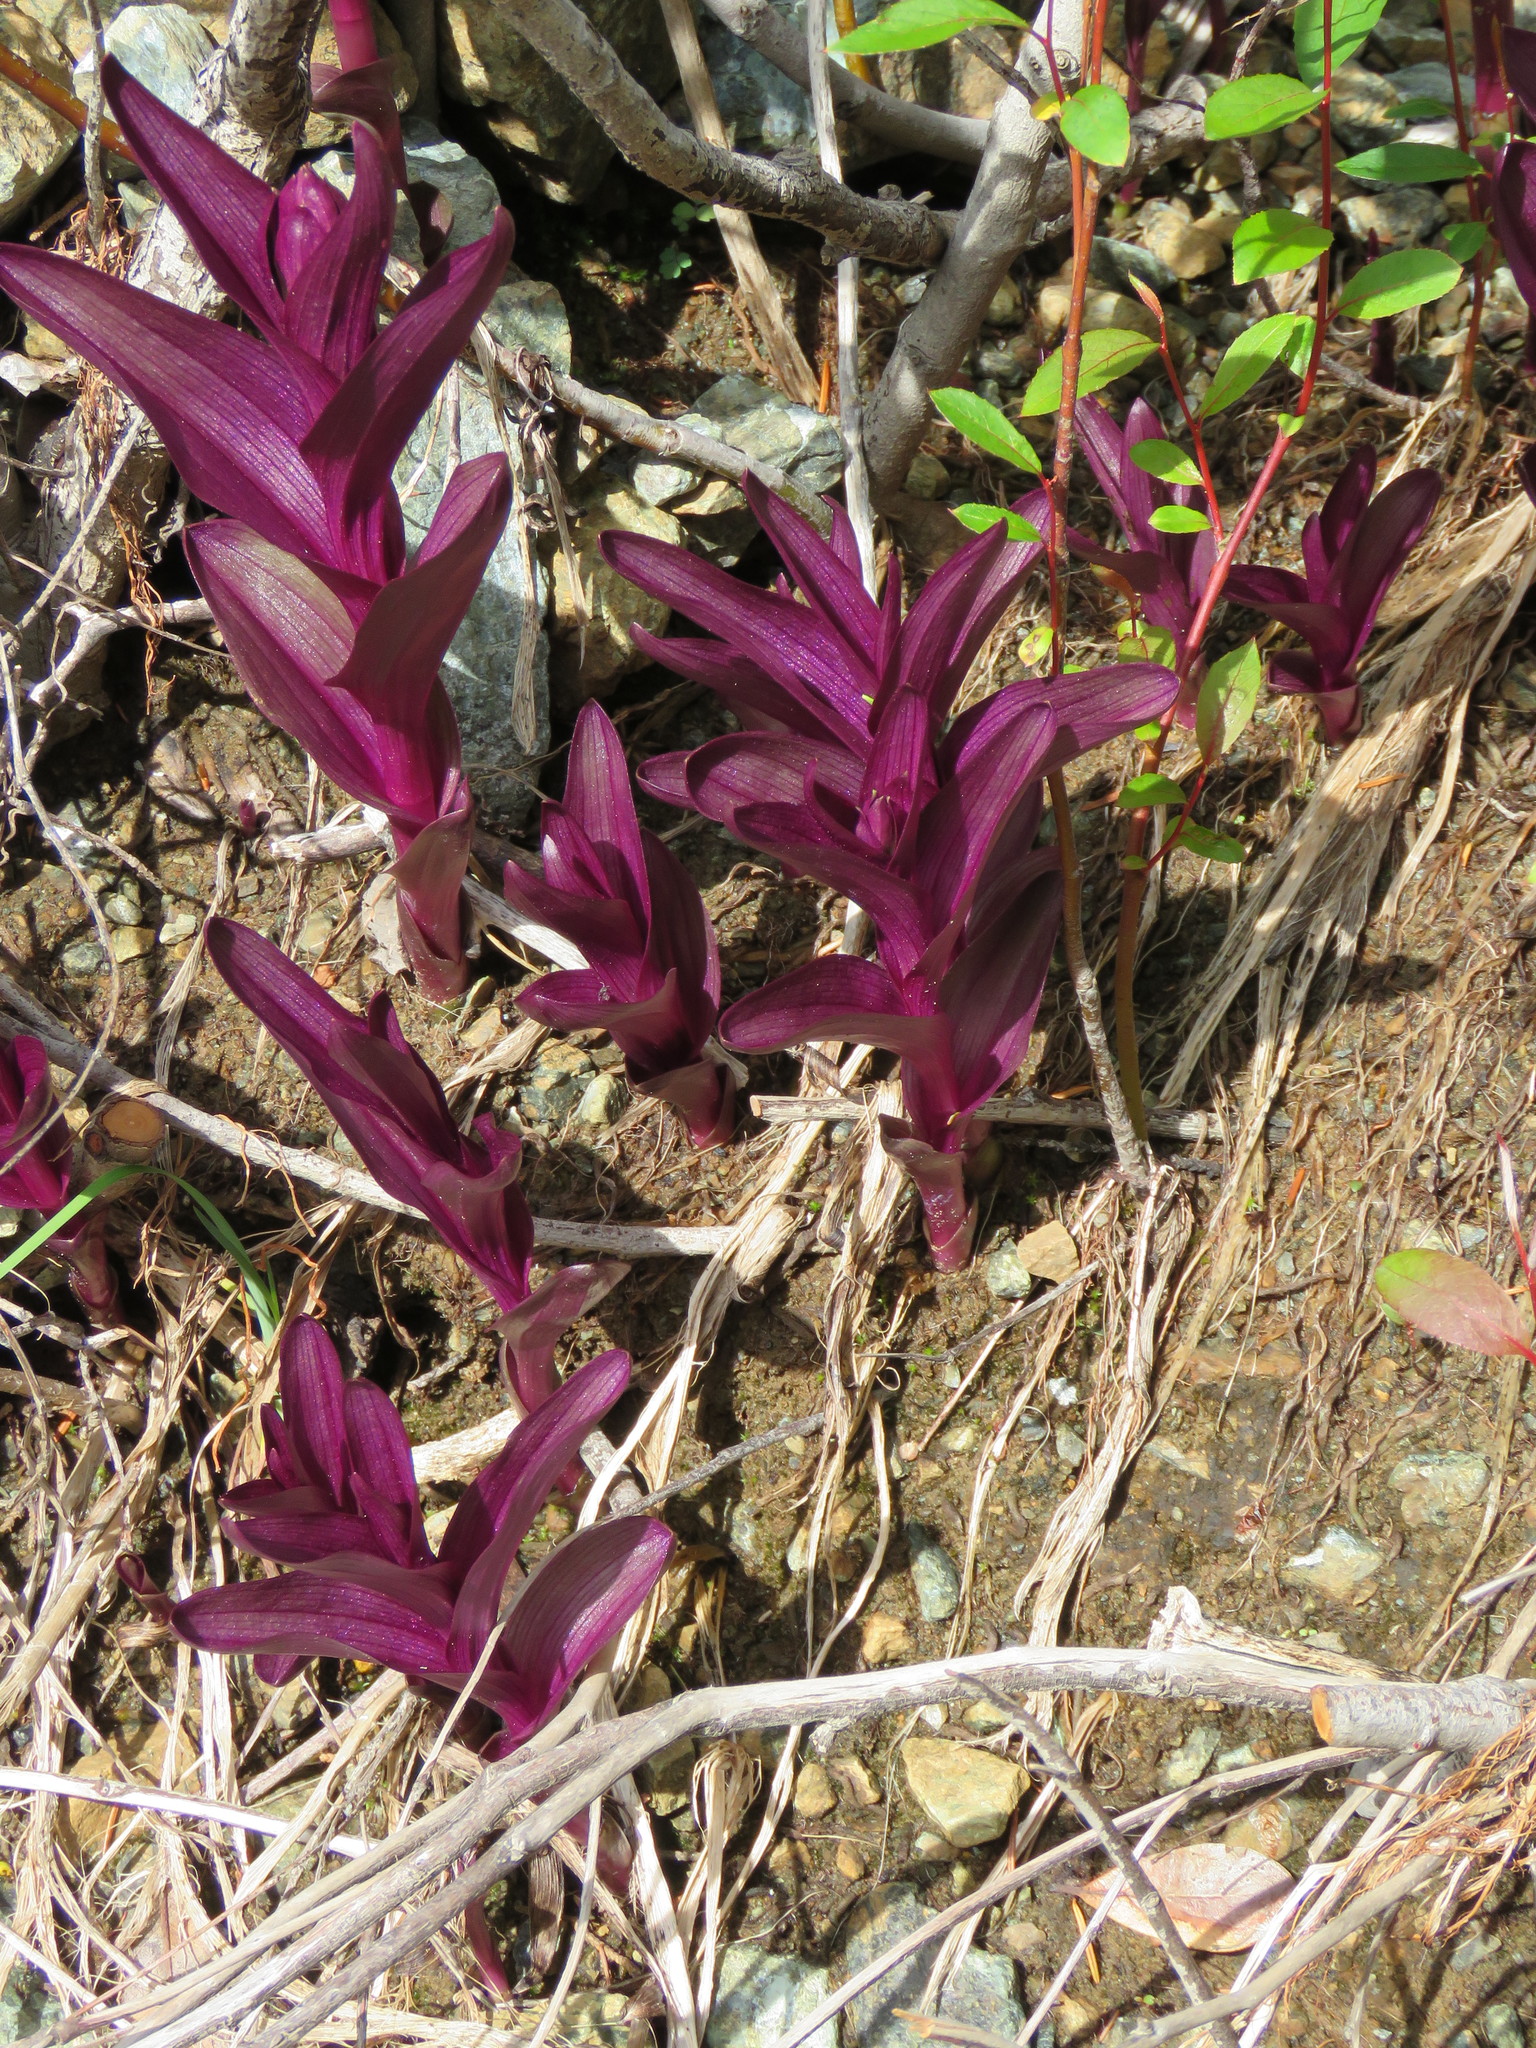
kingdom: Plantae
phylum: Tracheophyta
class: Liliopsida
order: Asparagales
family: Orchidaceae
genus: Epipactis
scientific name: Epipactis gigantea
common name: Chatterbox
